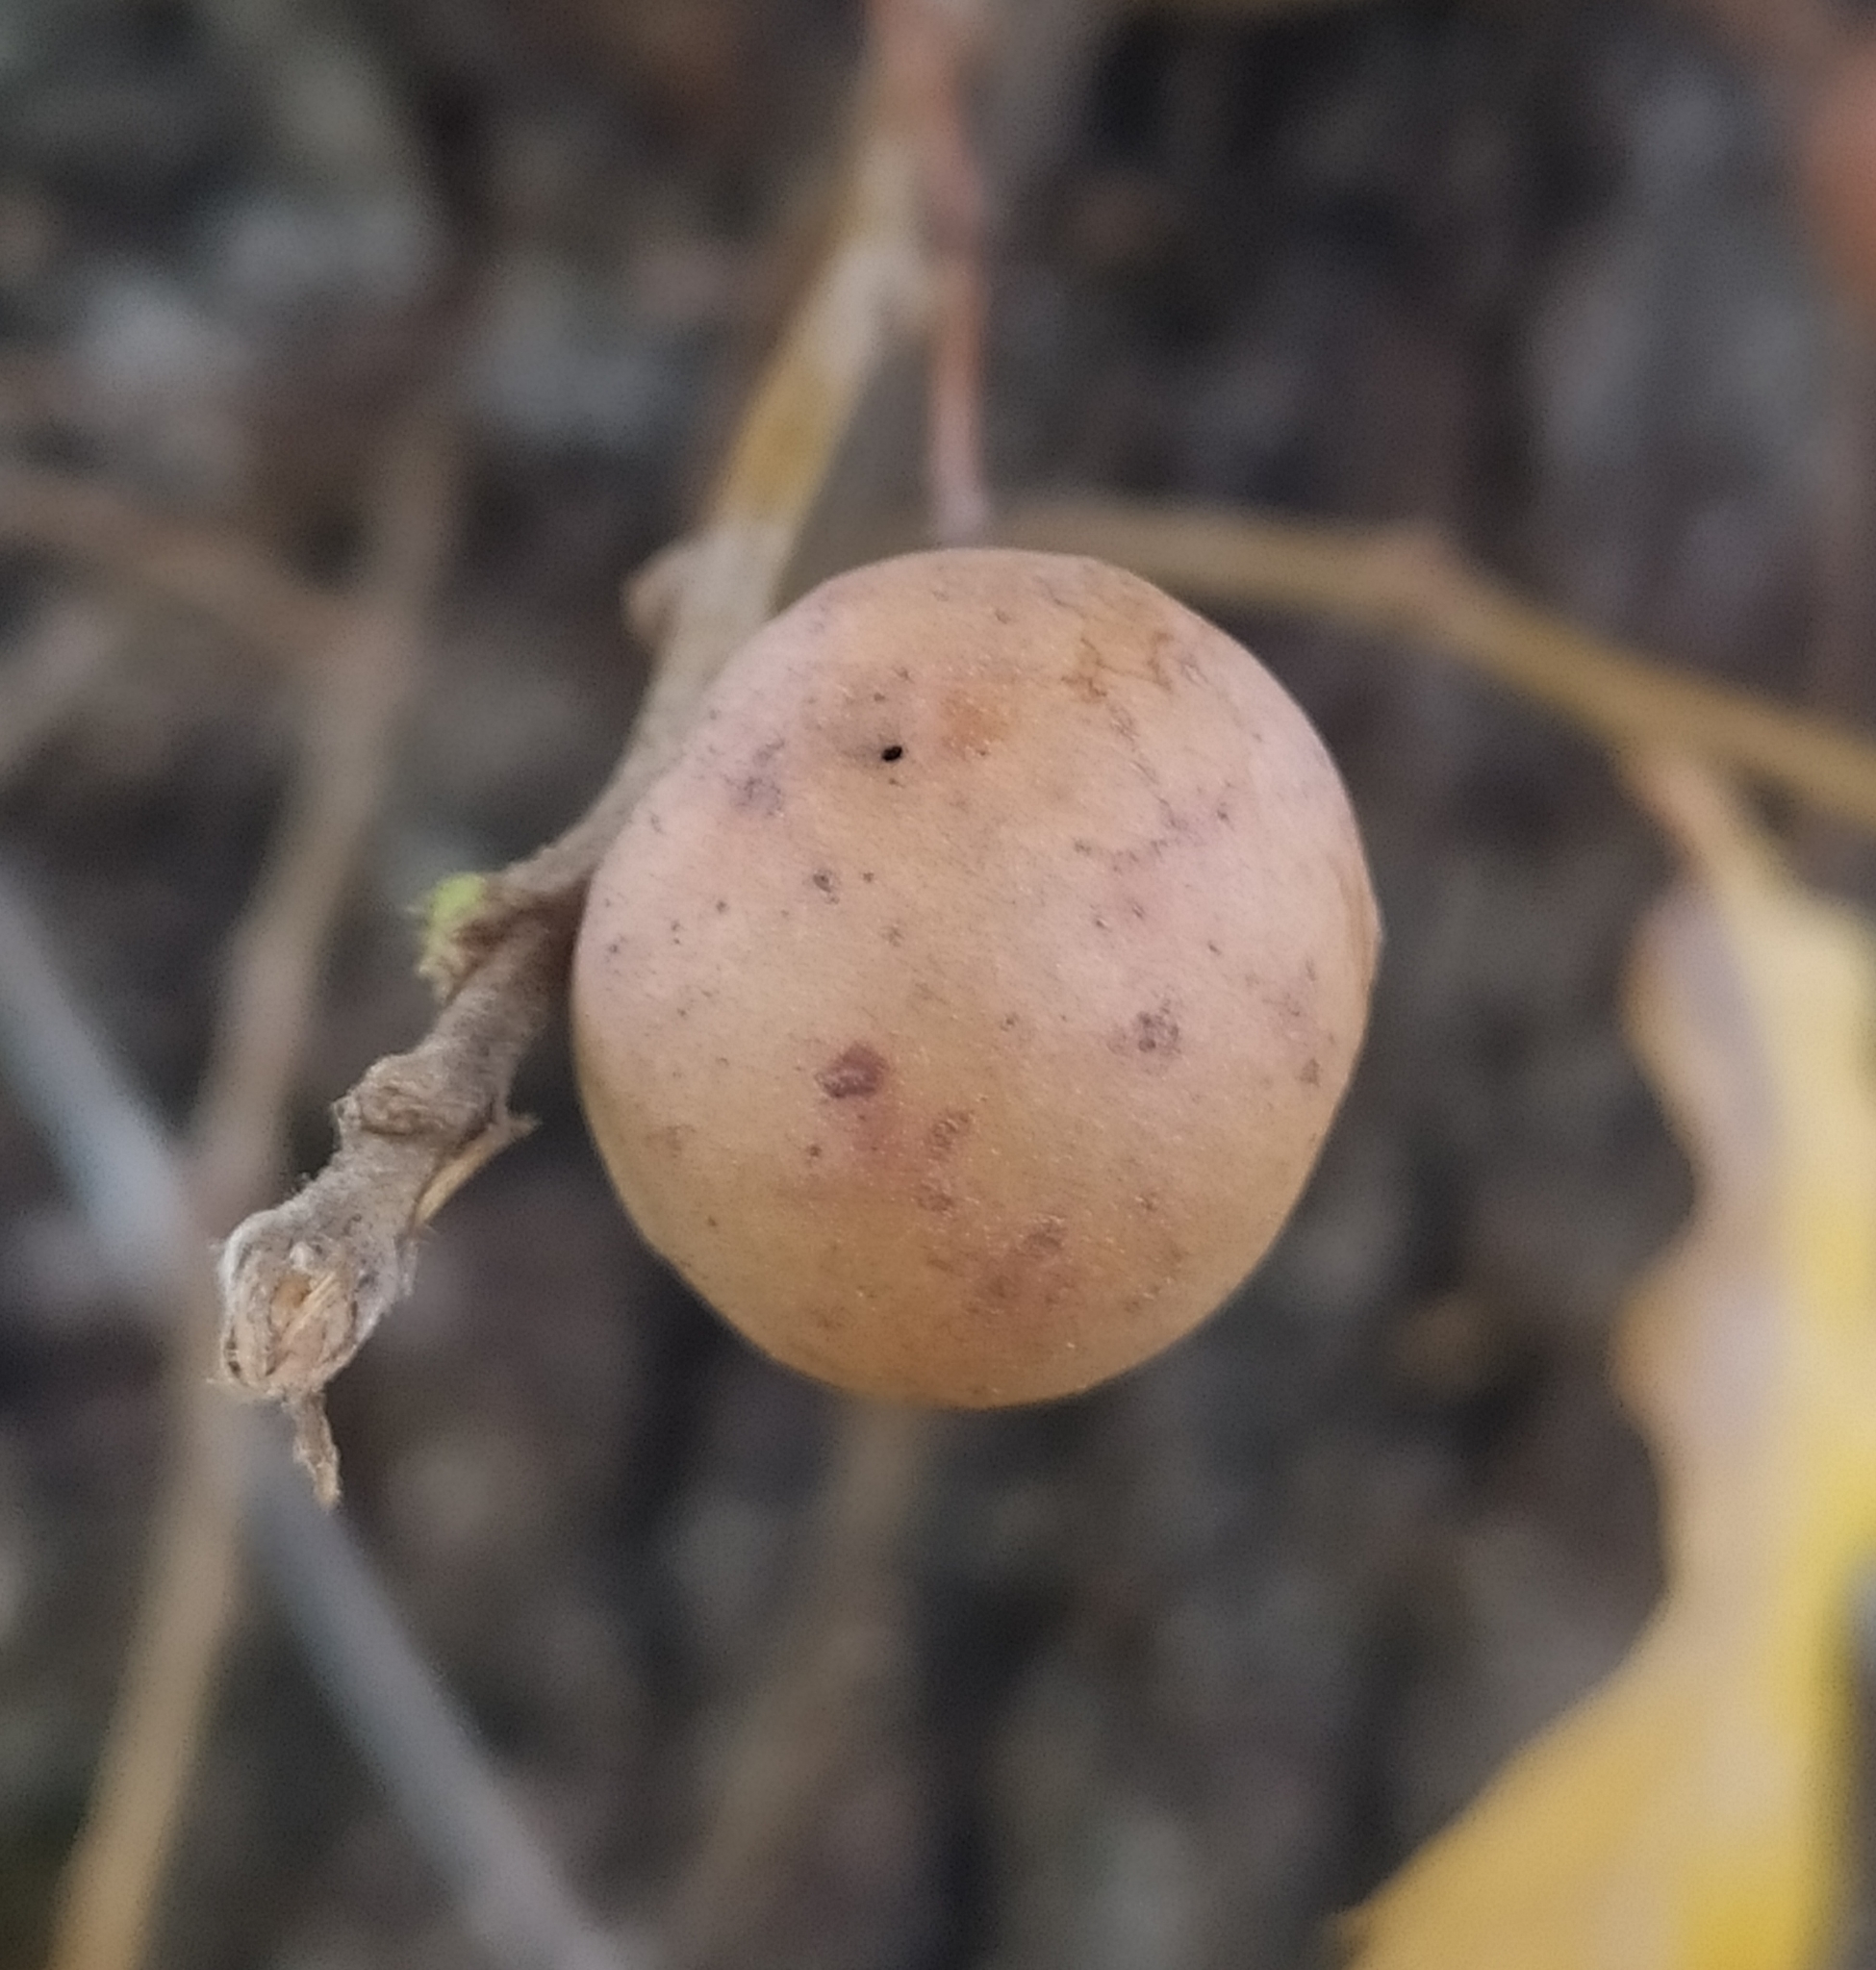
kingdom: Animalia
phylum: Arthropoda
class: Insecta
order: Hymenoptera
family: Cynipidae
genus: Andricus
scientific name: Andricus kollari
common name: Marble gall
